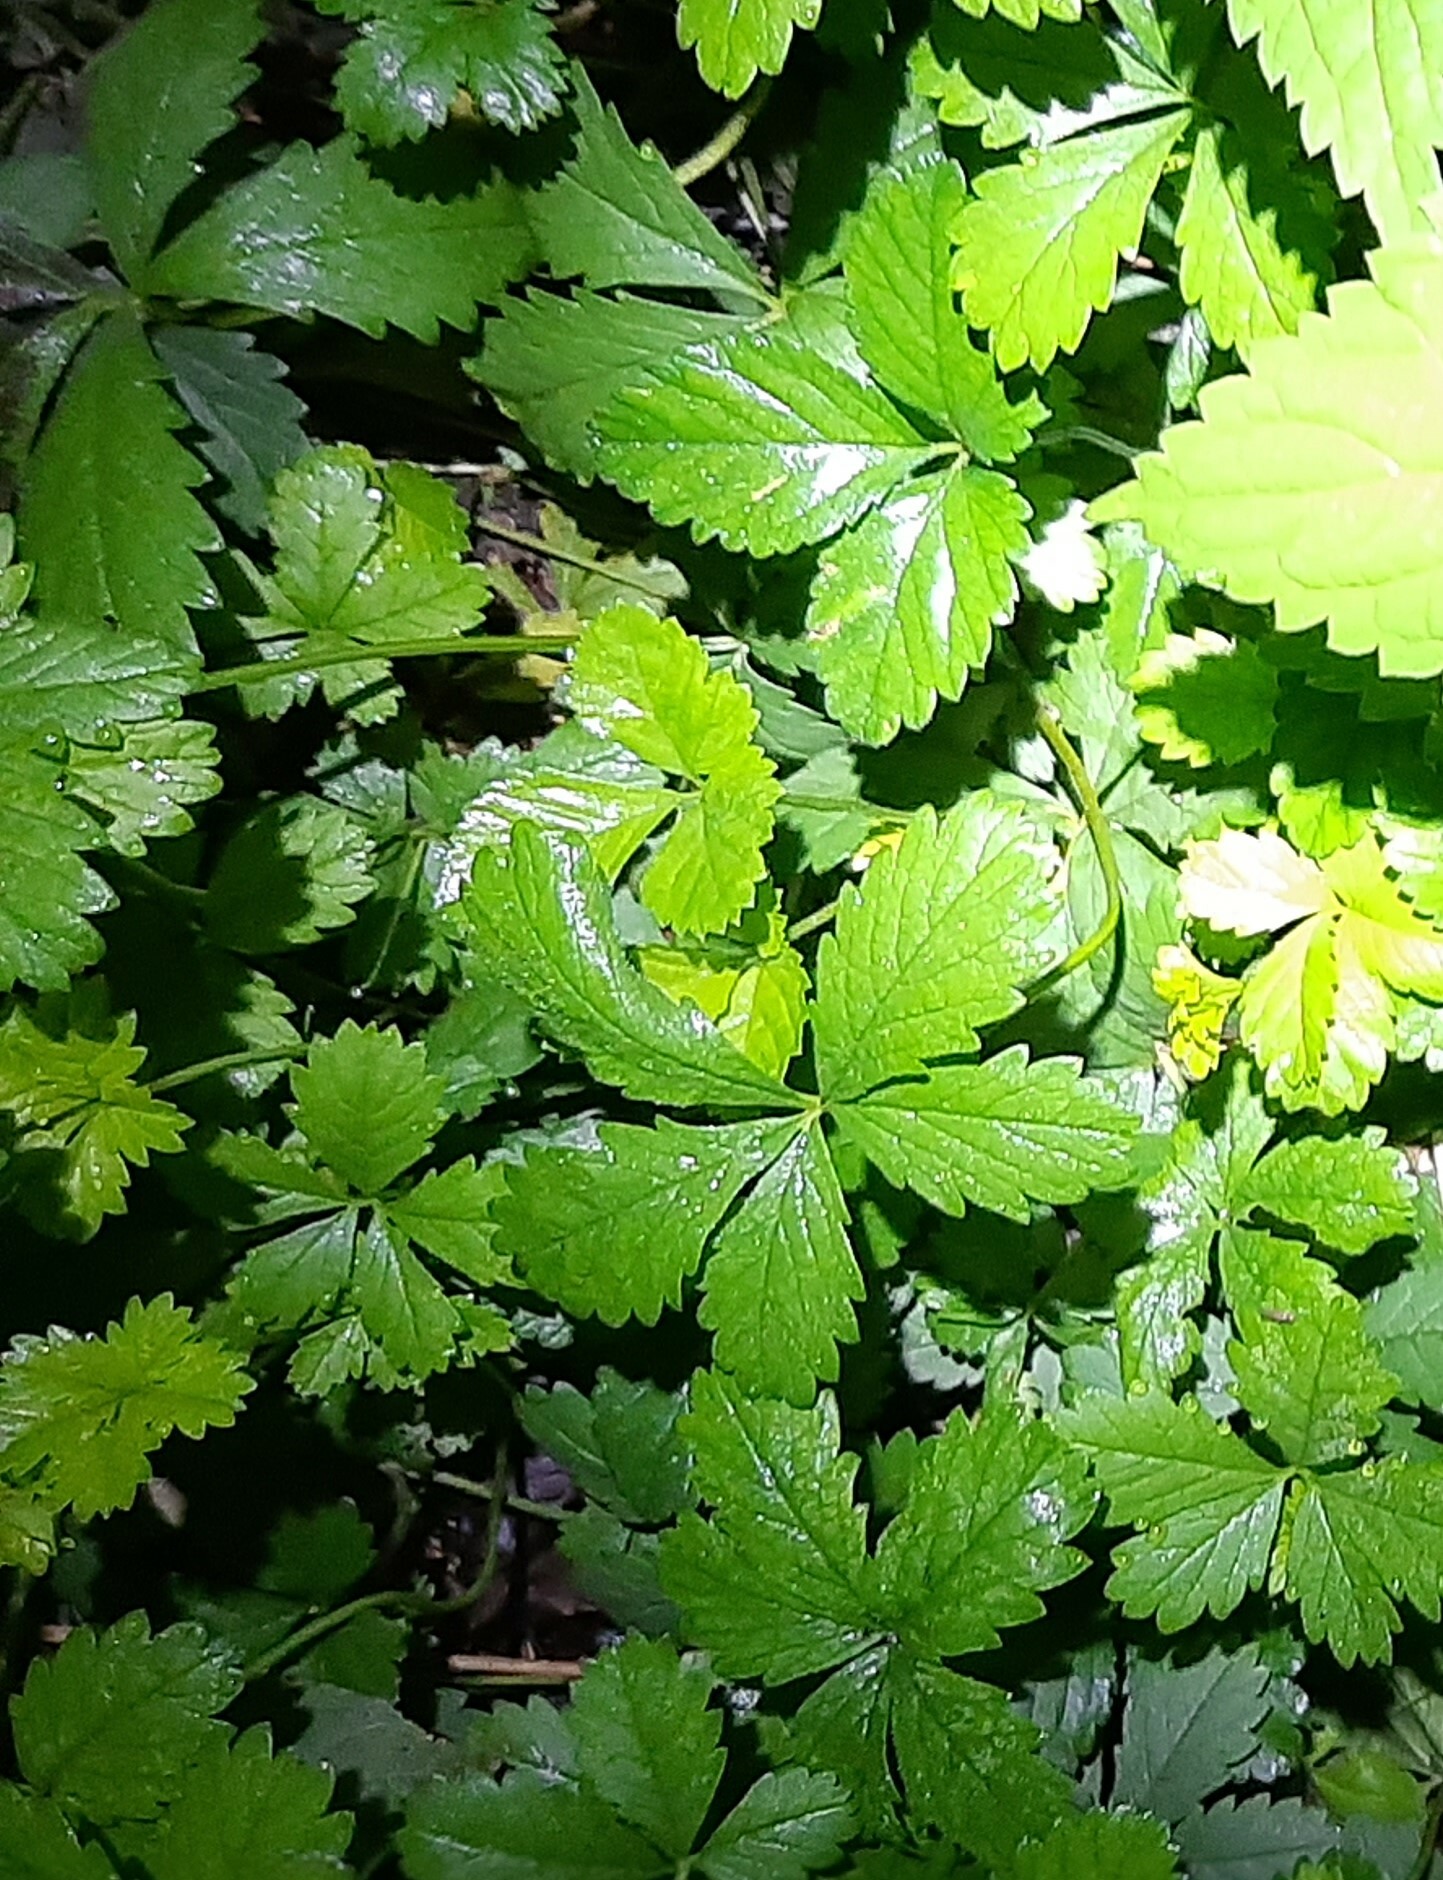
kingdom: Plantae
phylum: Tracheophyta
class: Magnoliopsida
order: Rosales
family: Rosaceae
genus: Potentilla
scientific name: Potentilla reptans
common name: Creeping cinquefoil
